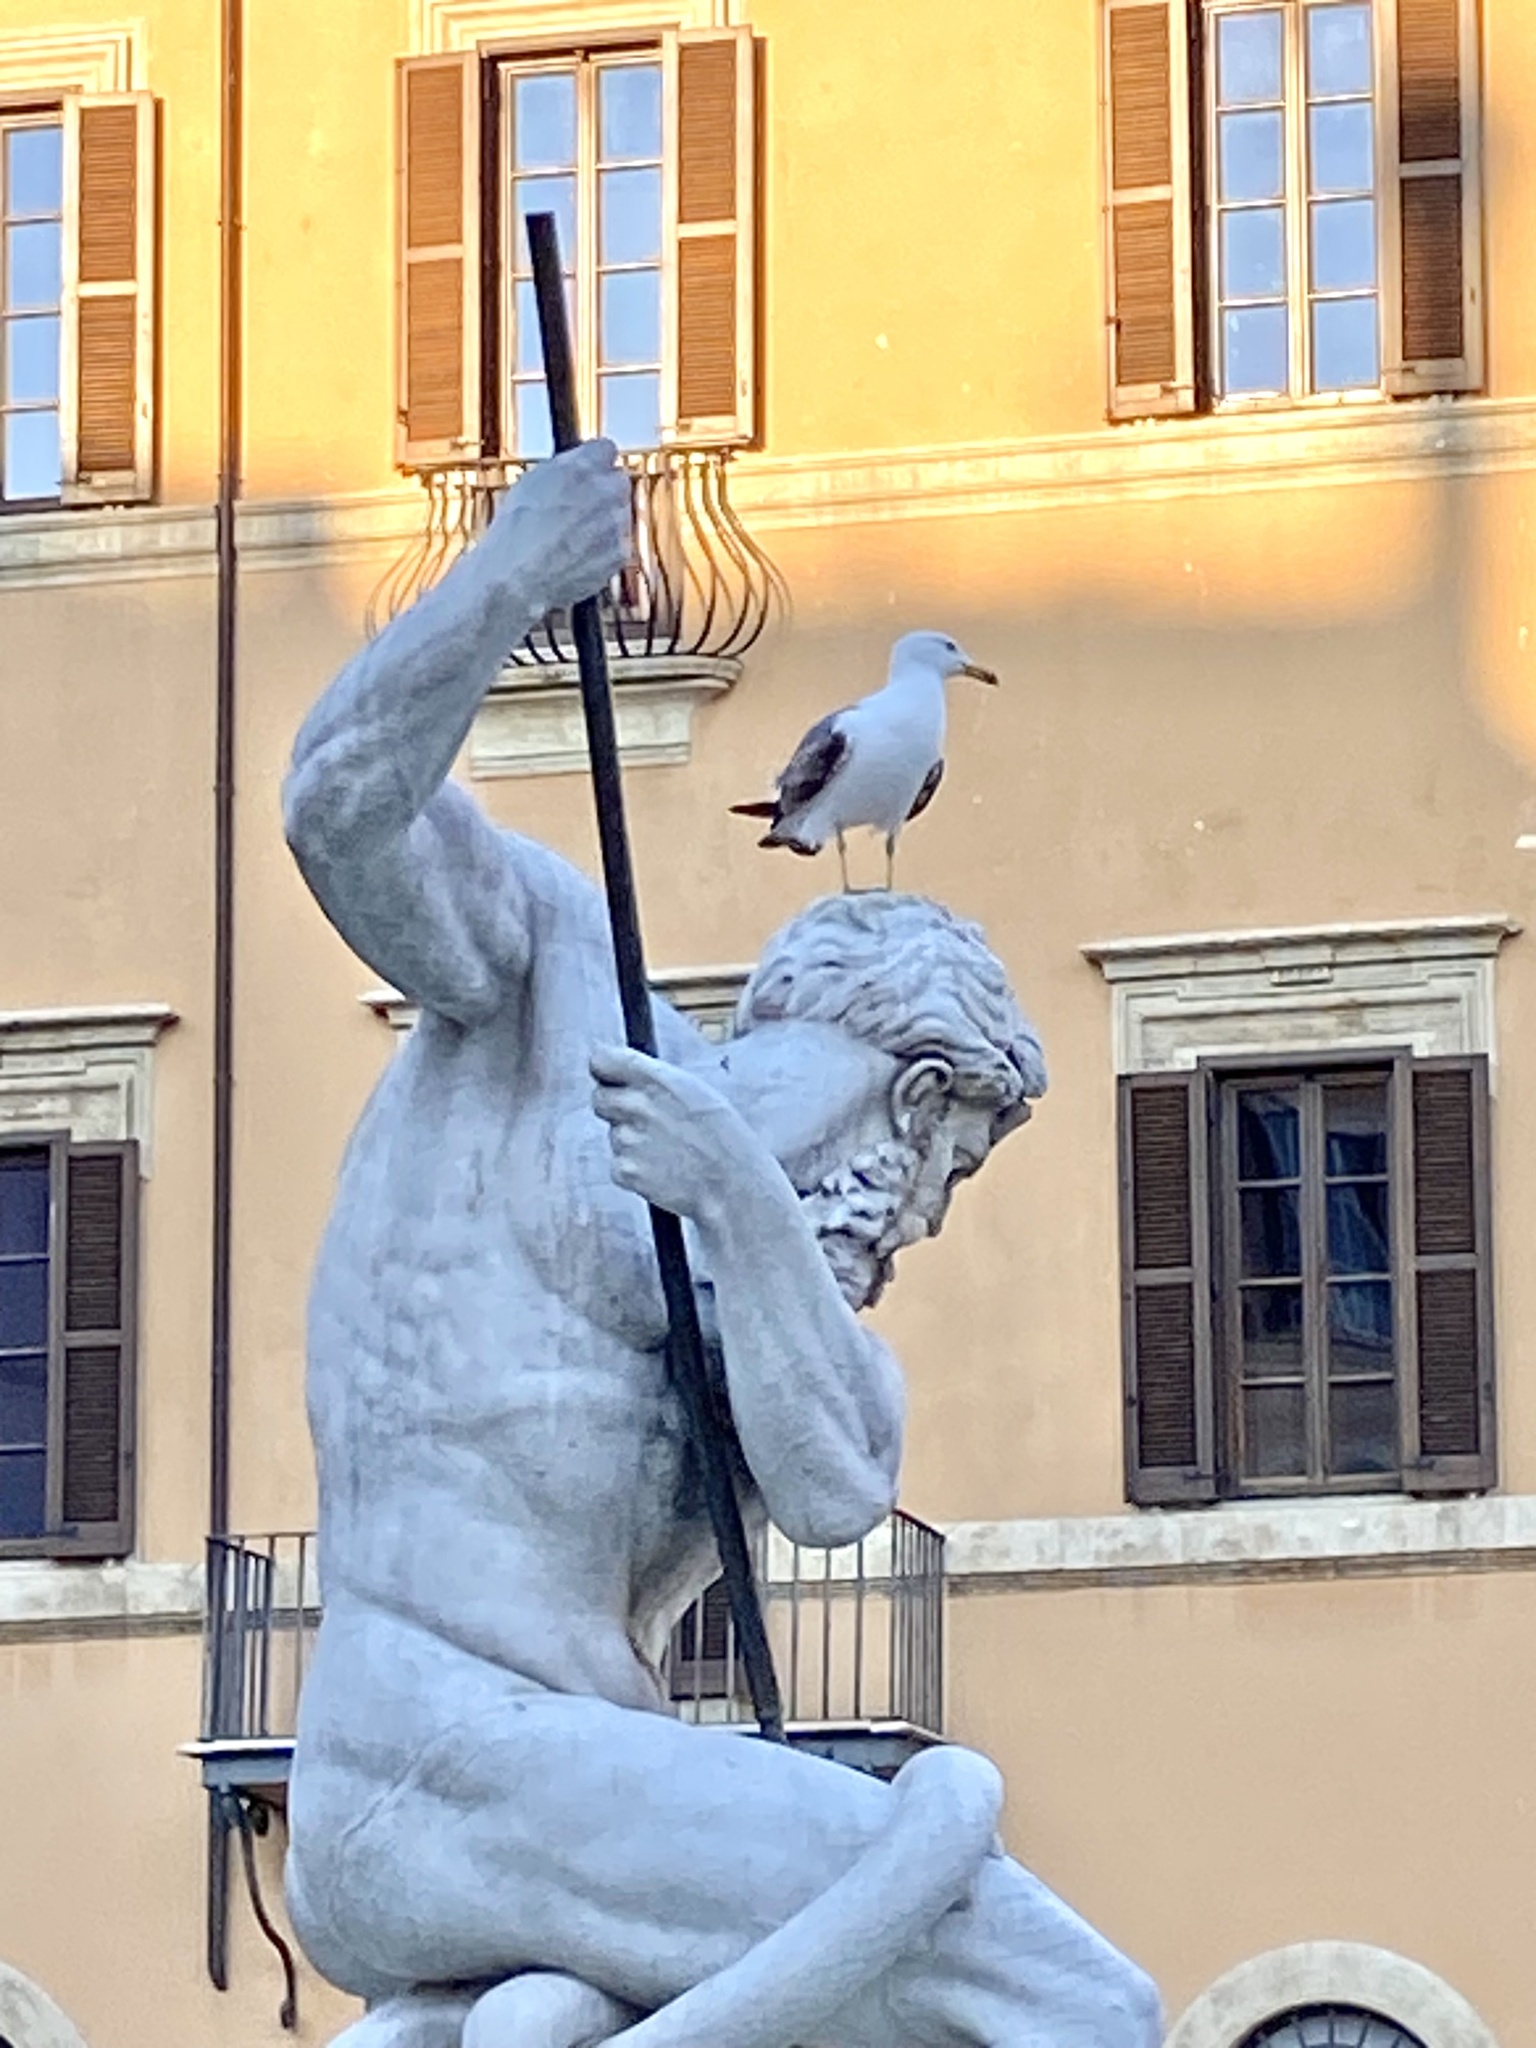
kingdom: Animalia
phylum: Chordata
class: Aves
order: Charadriiformes
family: Laridae
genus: Larus
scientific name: Larus michahellis
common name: Yellow-legged gull
